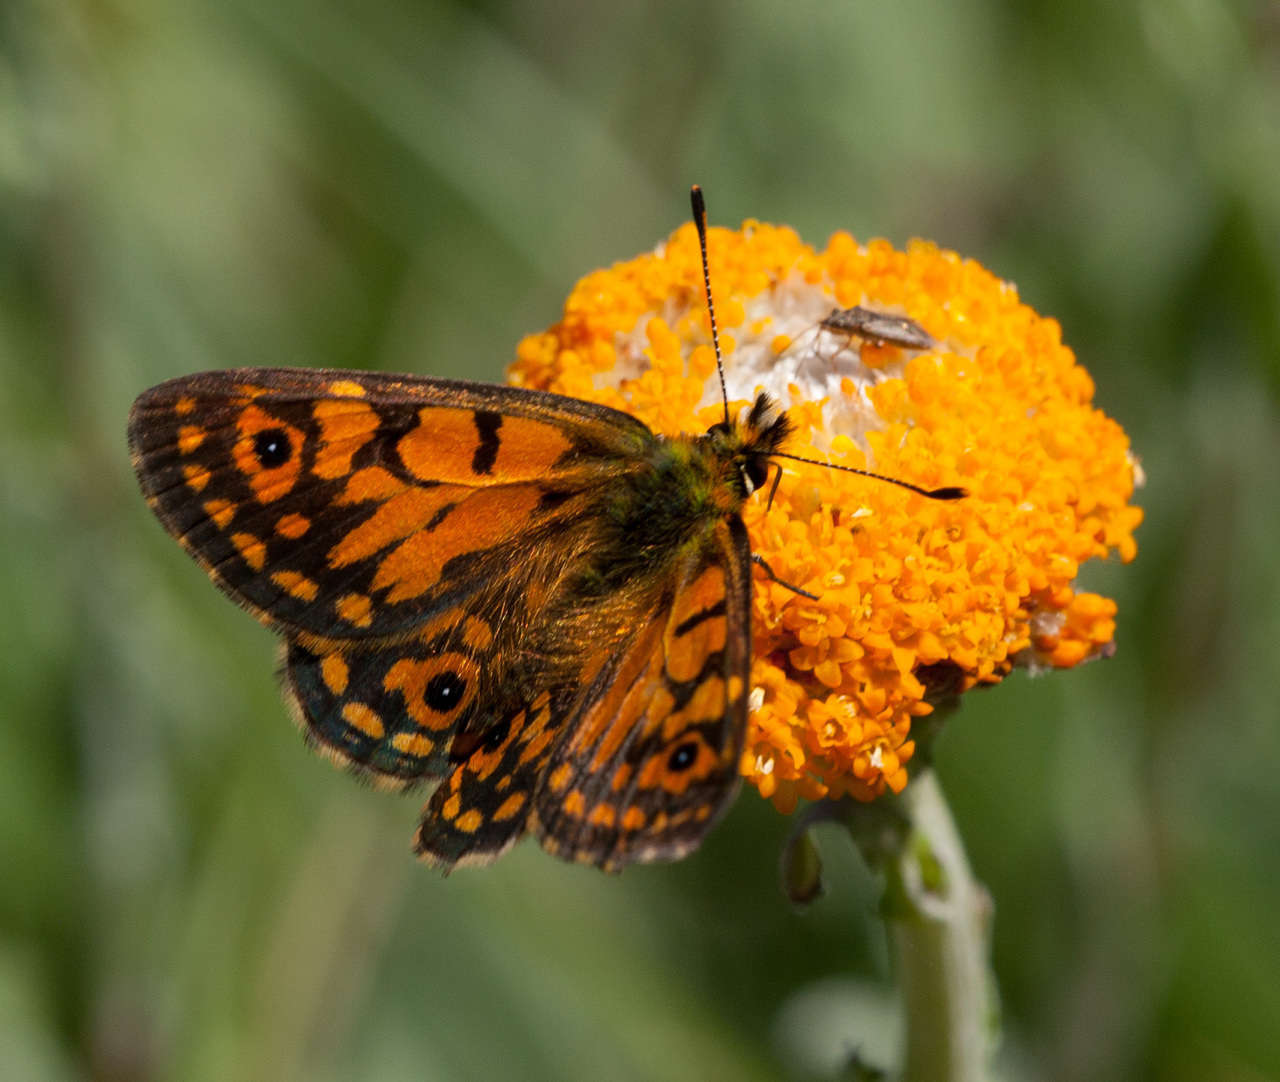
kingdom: Animalia
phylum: Arthropoda
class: Insecta
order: Lepidoptera
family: Nymphalidae
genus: Oreixenica
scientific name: Oreixenica orichora
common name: Orichora brown
